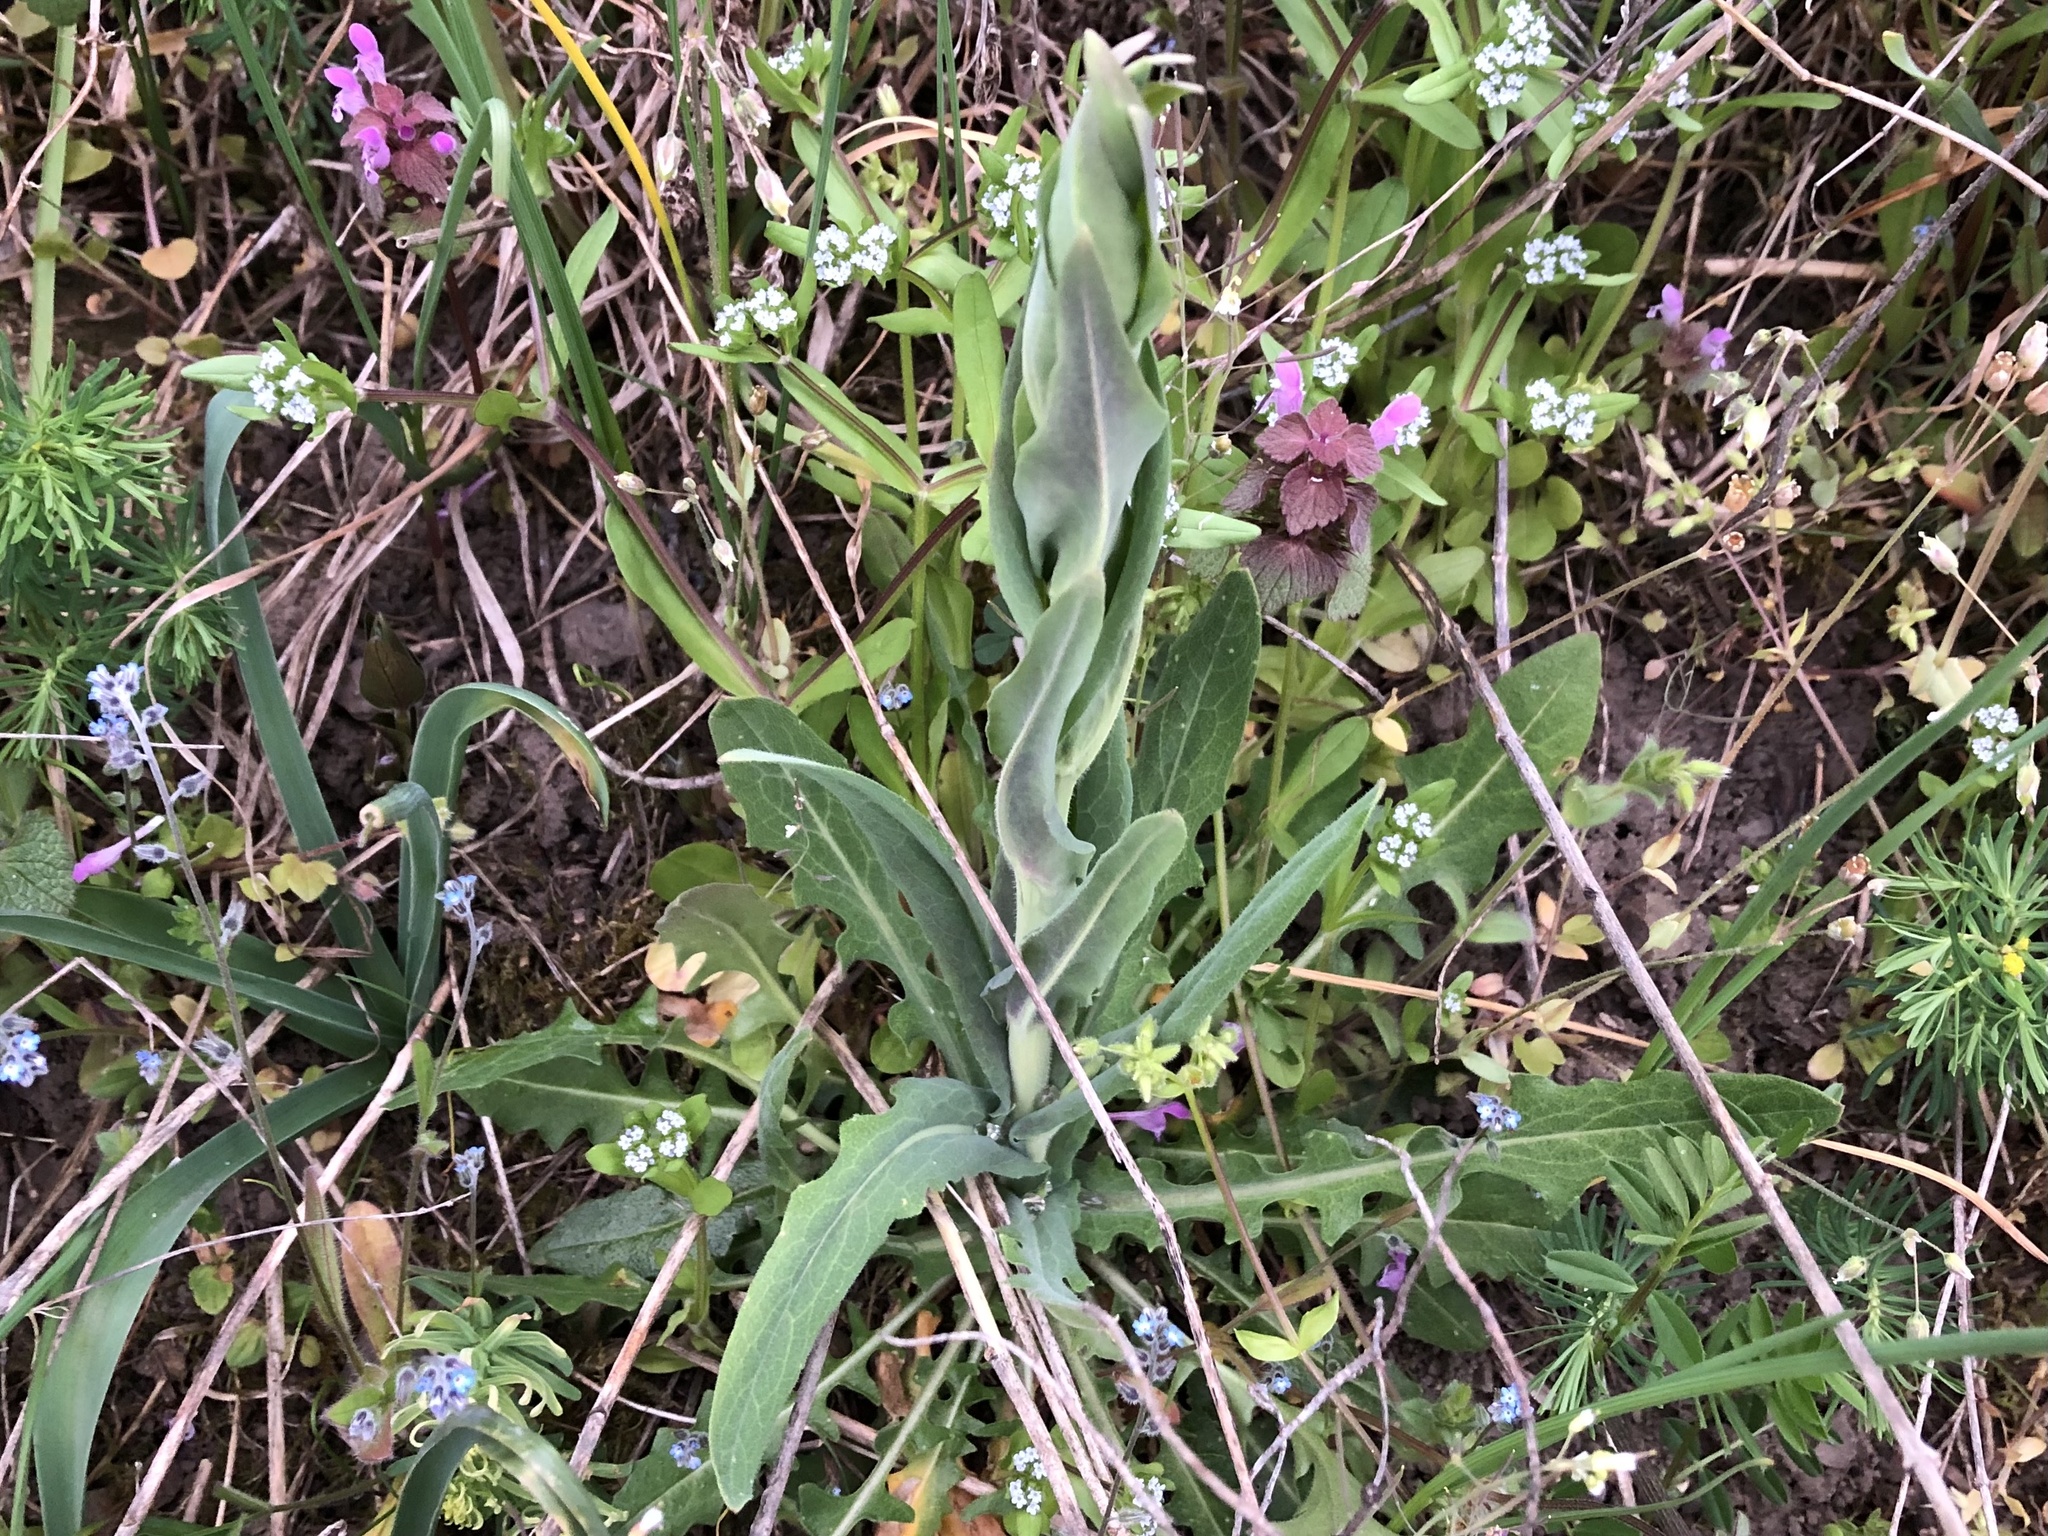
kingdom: Plantae
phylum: Tracheophyta
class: Magnoliopsida
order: Brassicales
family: Brassicaceae
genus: Turritis
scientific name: Turritis glabra
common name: Tower rockcress
